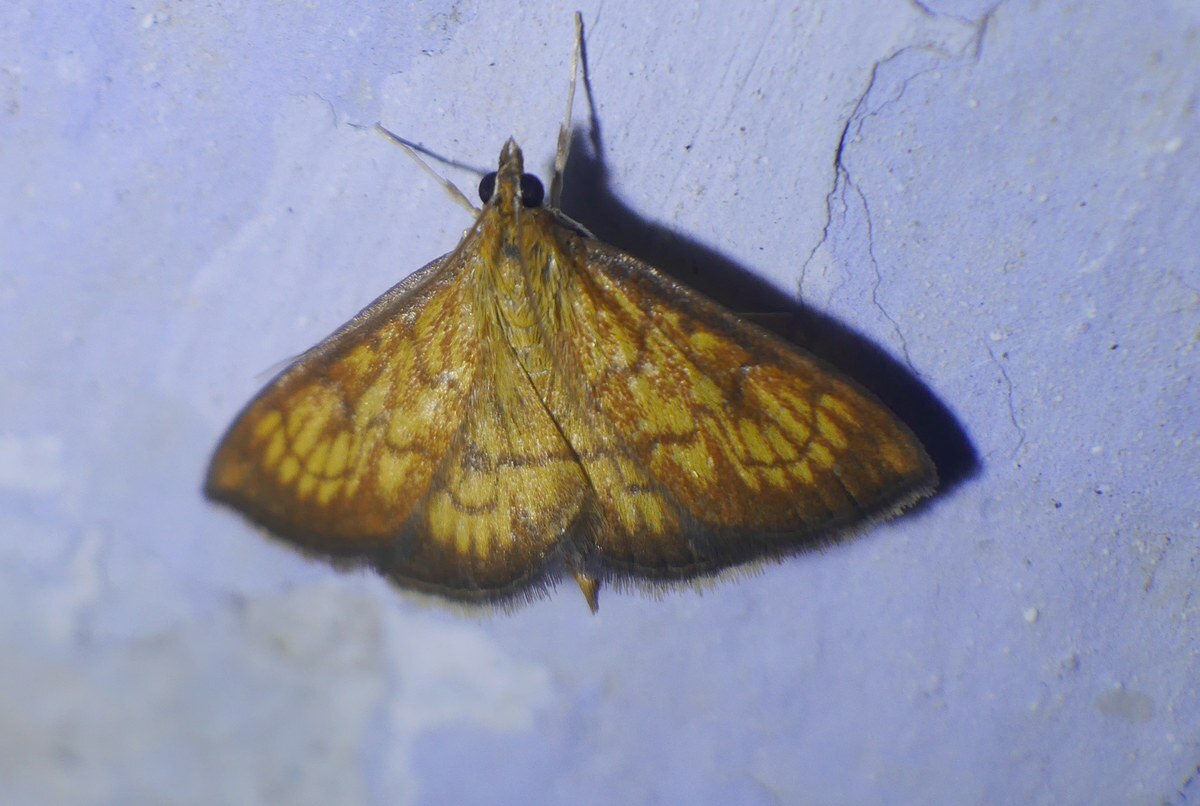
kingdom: Animalia
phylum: Arthropoda
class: Insecta
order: Lepidoptera
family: Crambidae
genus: Ecpyrrhorrhoe
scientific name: Ecpyrrhorrhoe rubiginalis
